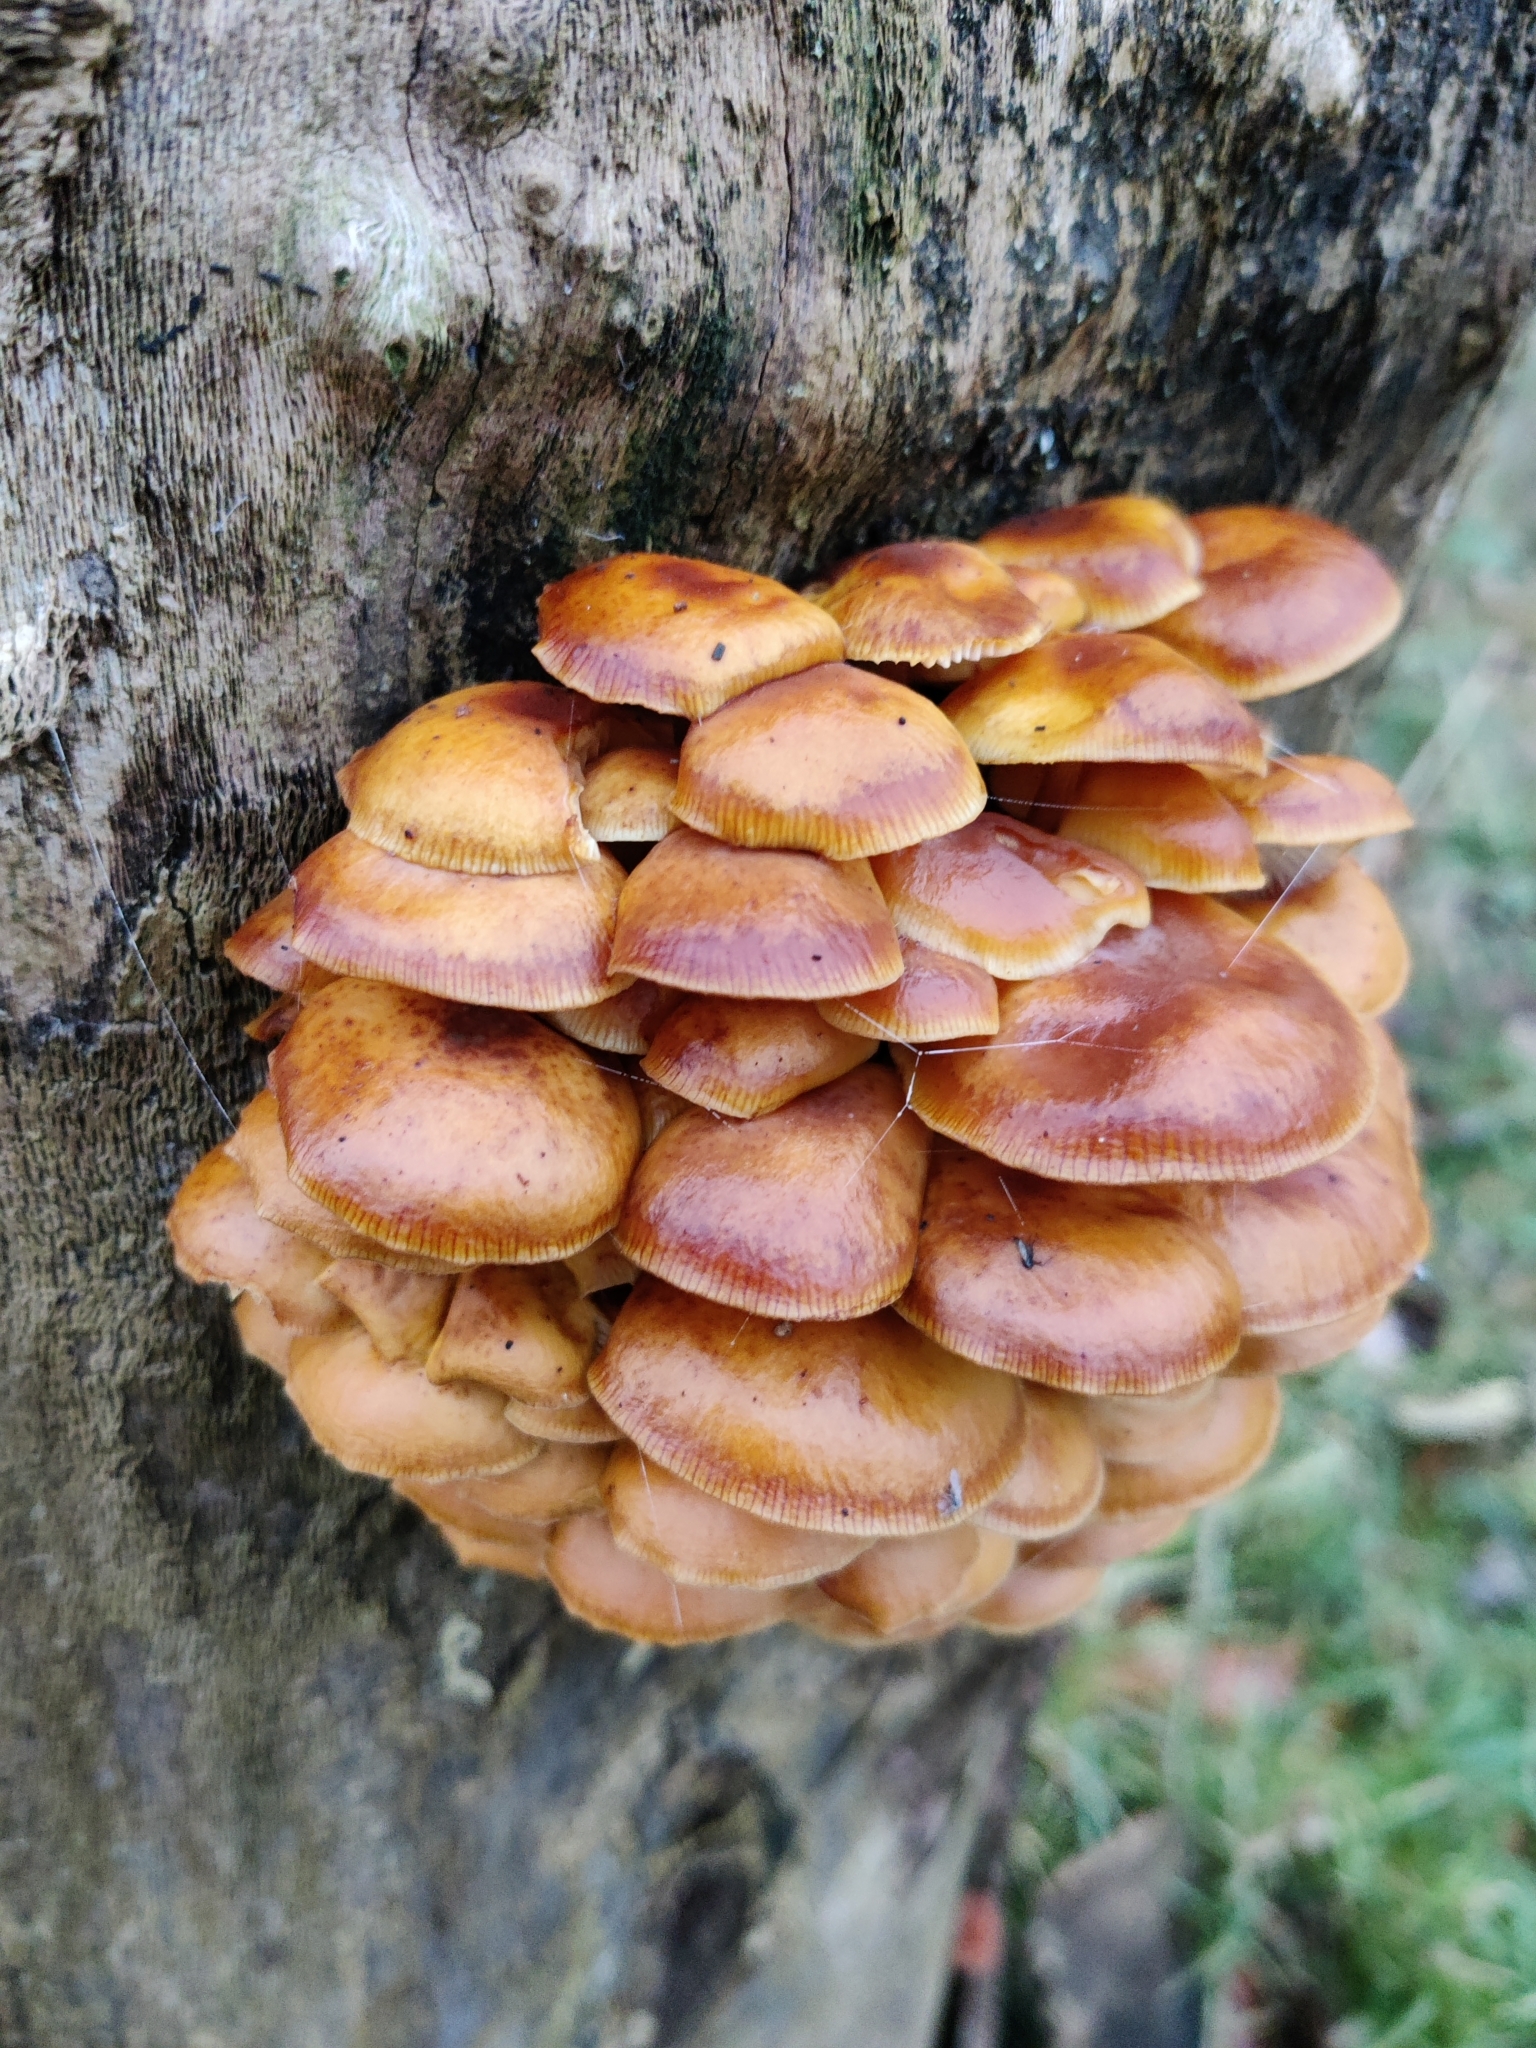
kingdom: Fungi
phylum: Basidiomycota
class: Agaricomycetes
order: Agaricales
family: Physalacriaceae
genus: Flammulina
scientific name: Flammulina
